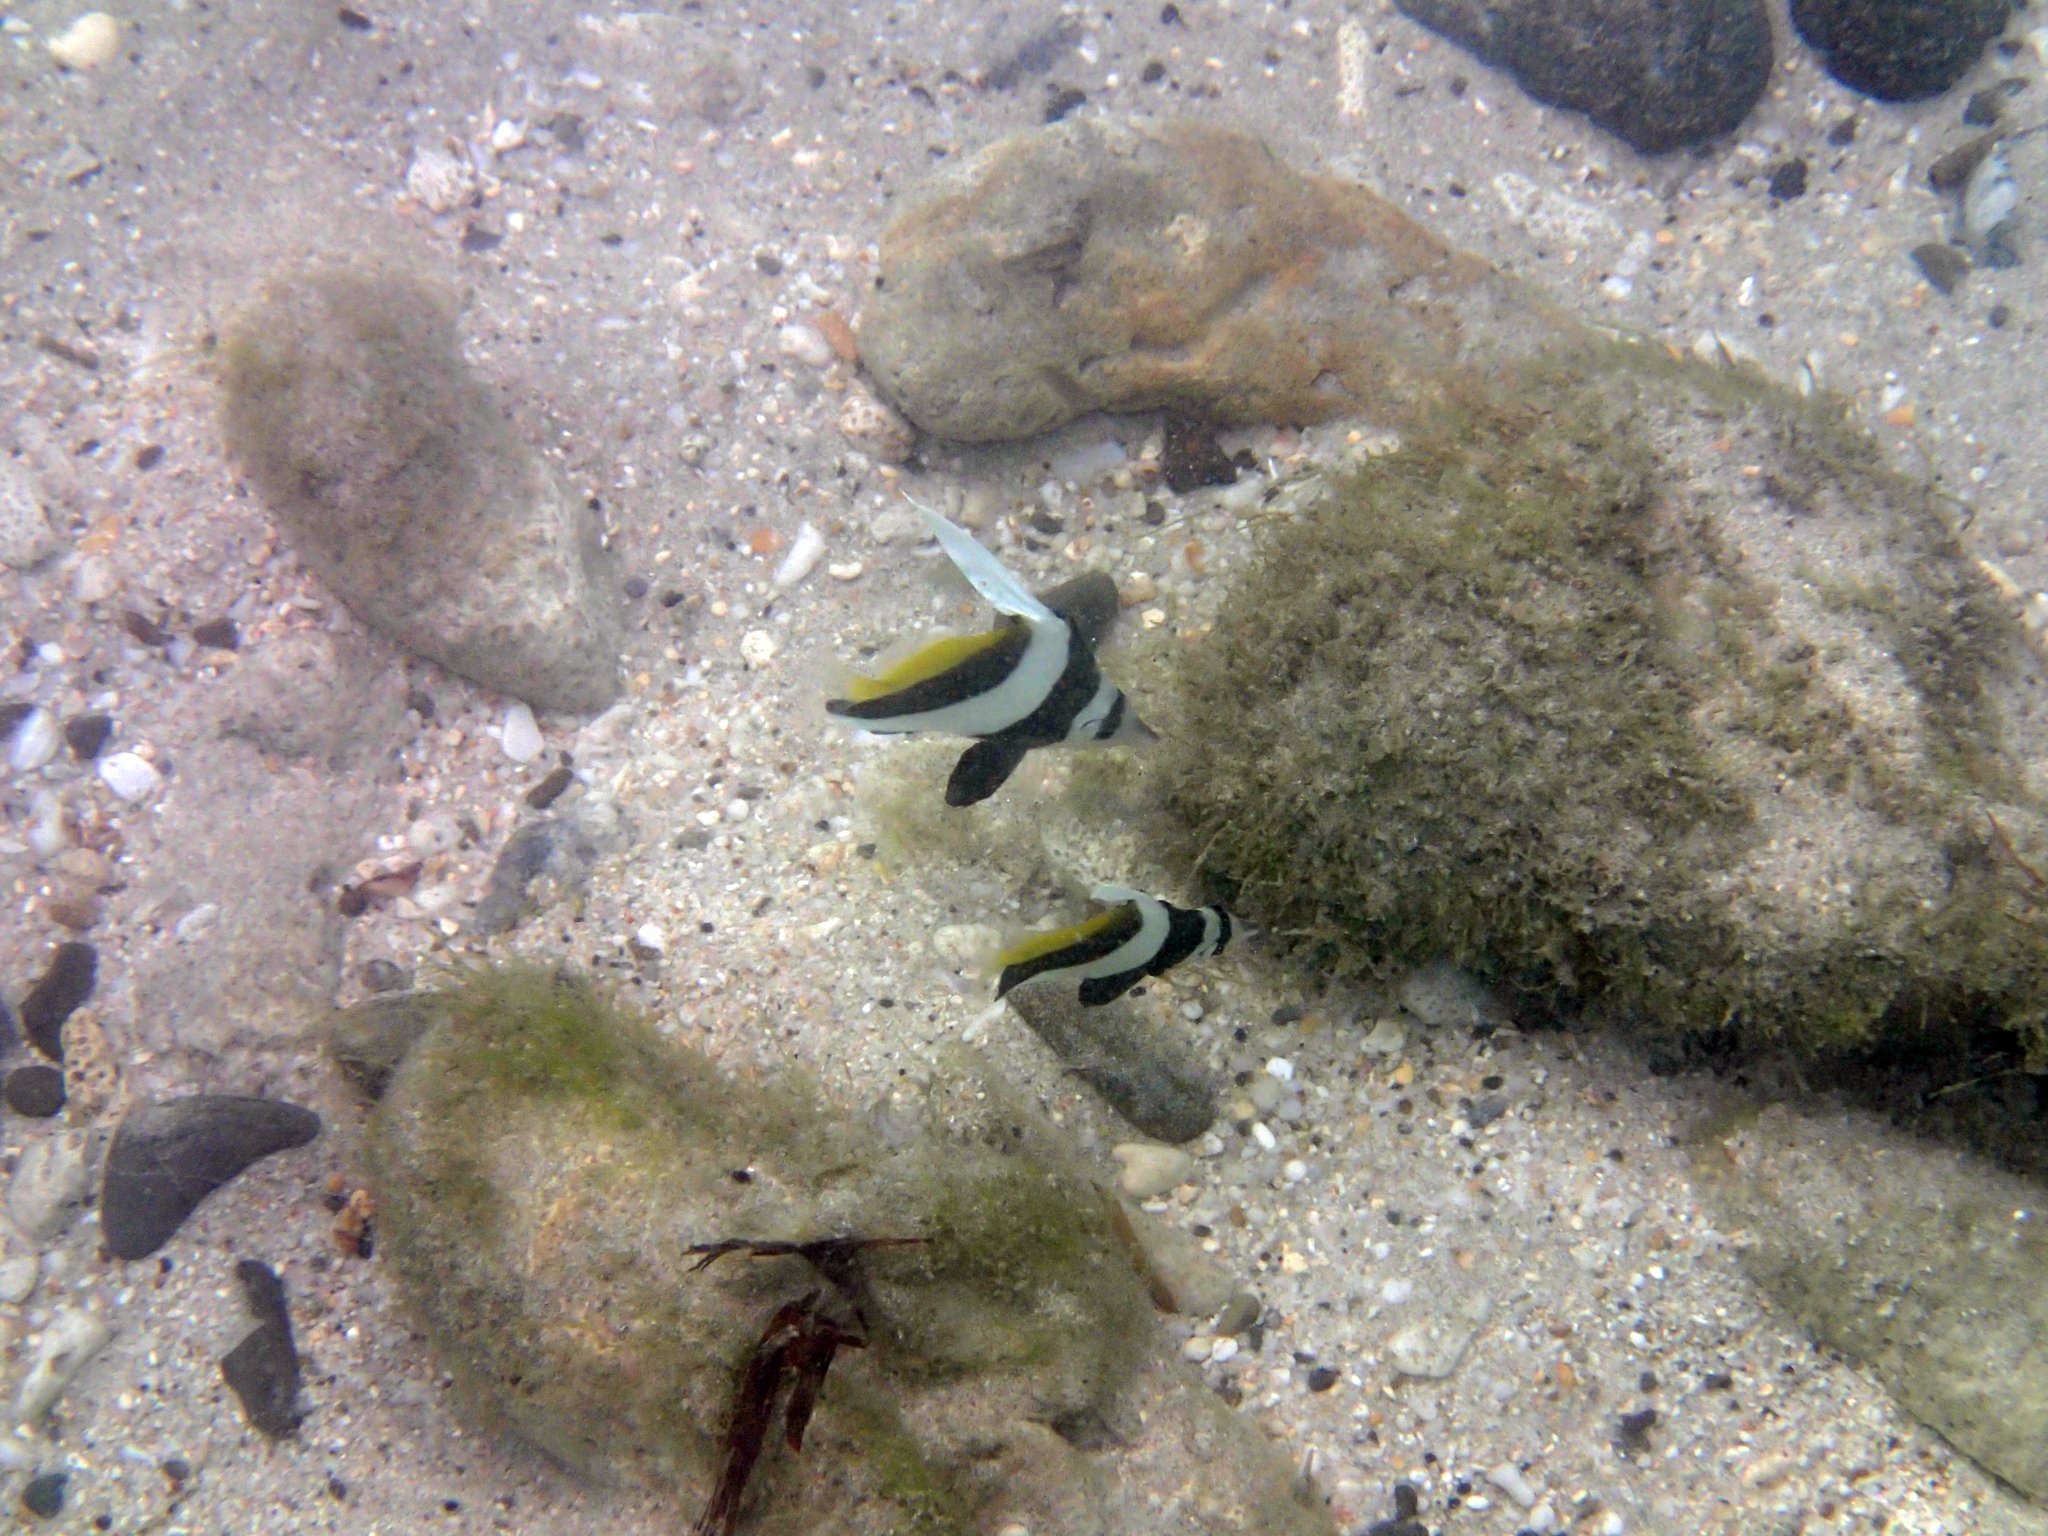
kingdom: Animalia
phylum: Chordata
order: Perciformes
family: Chaetodontidae
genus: Heniochus
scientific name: Heniochus acuminatus
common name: Pennant coralfish
